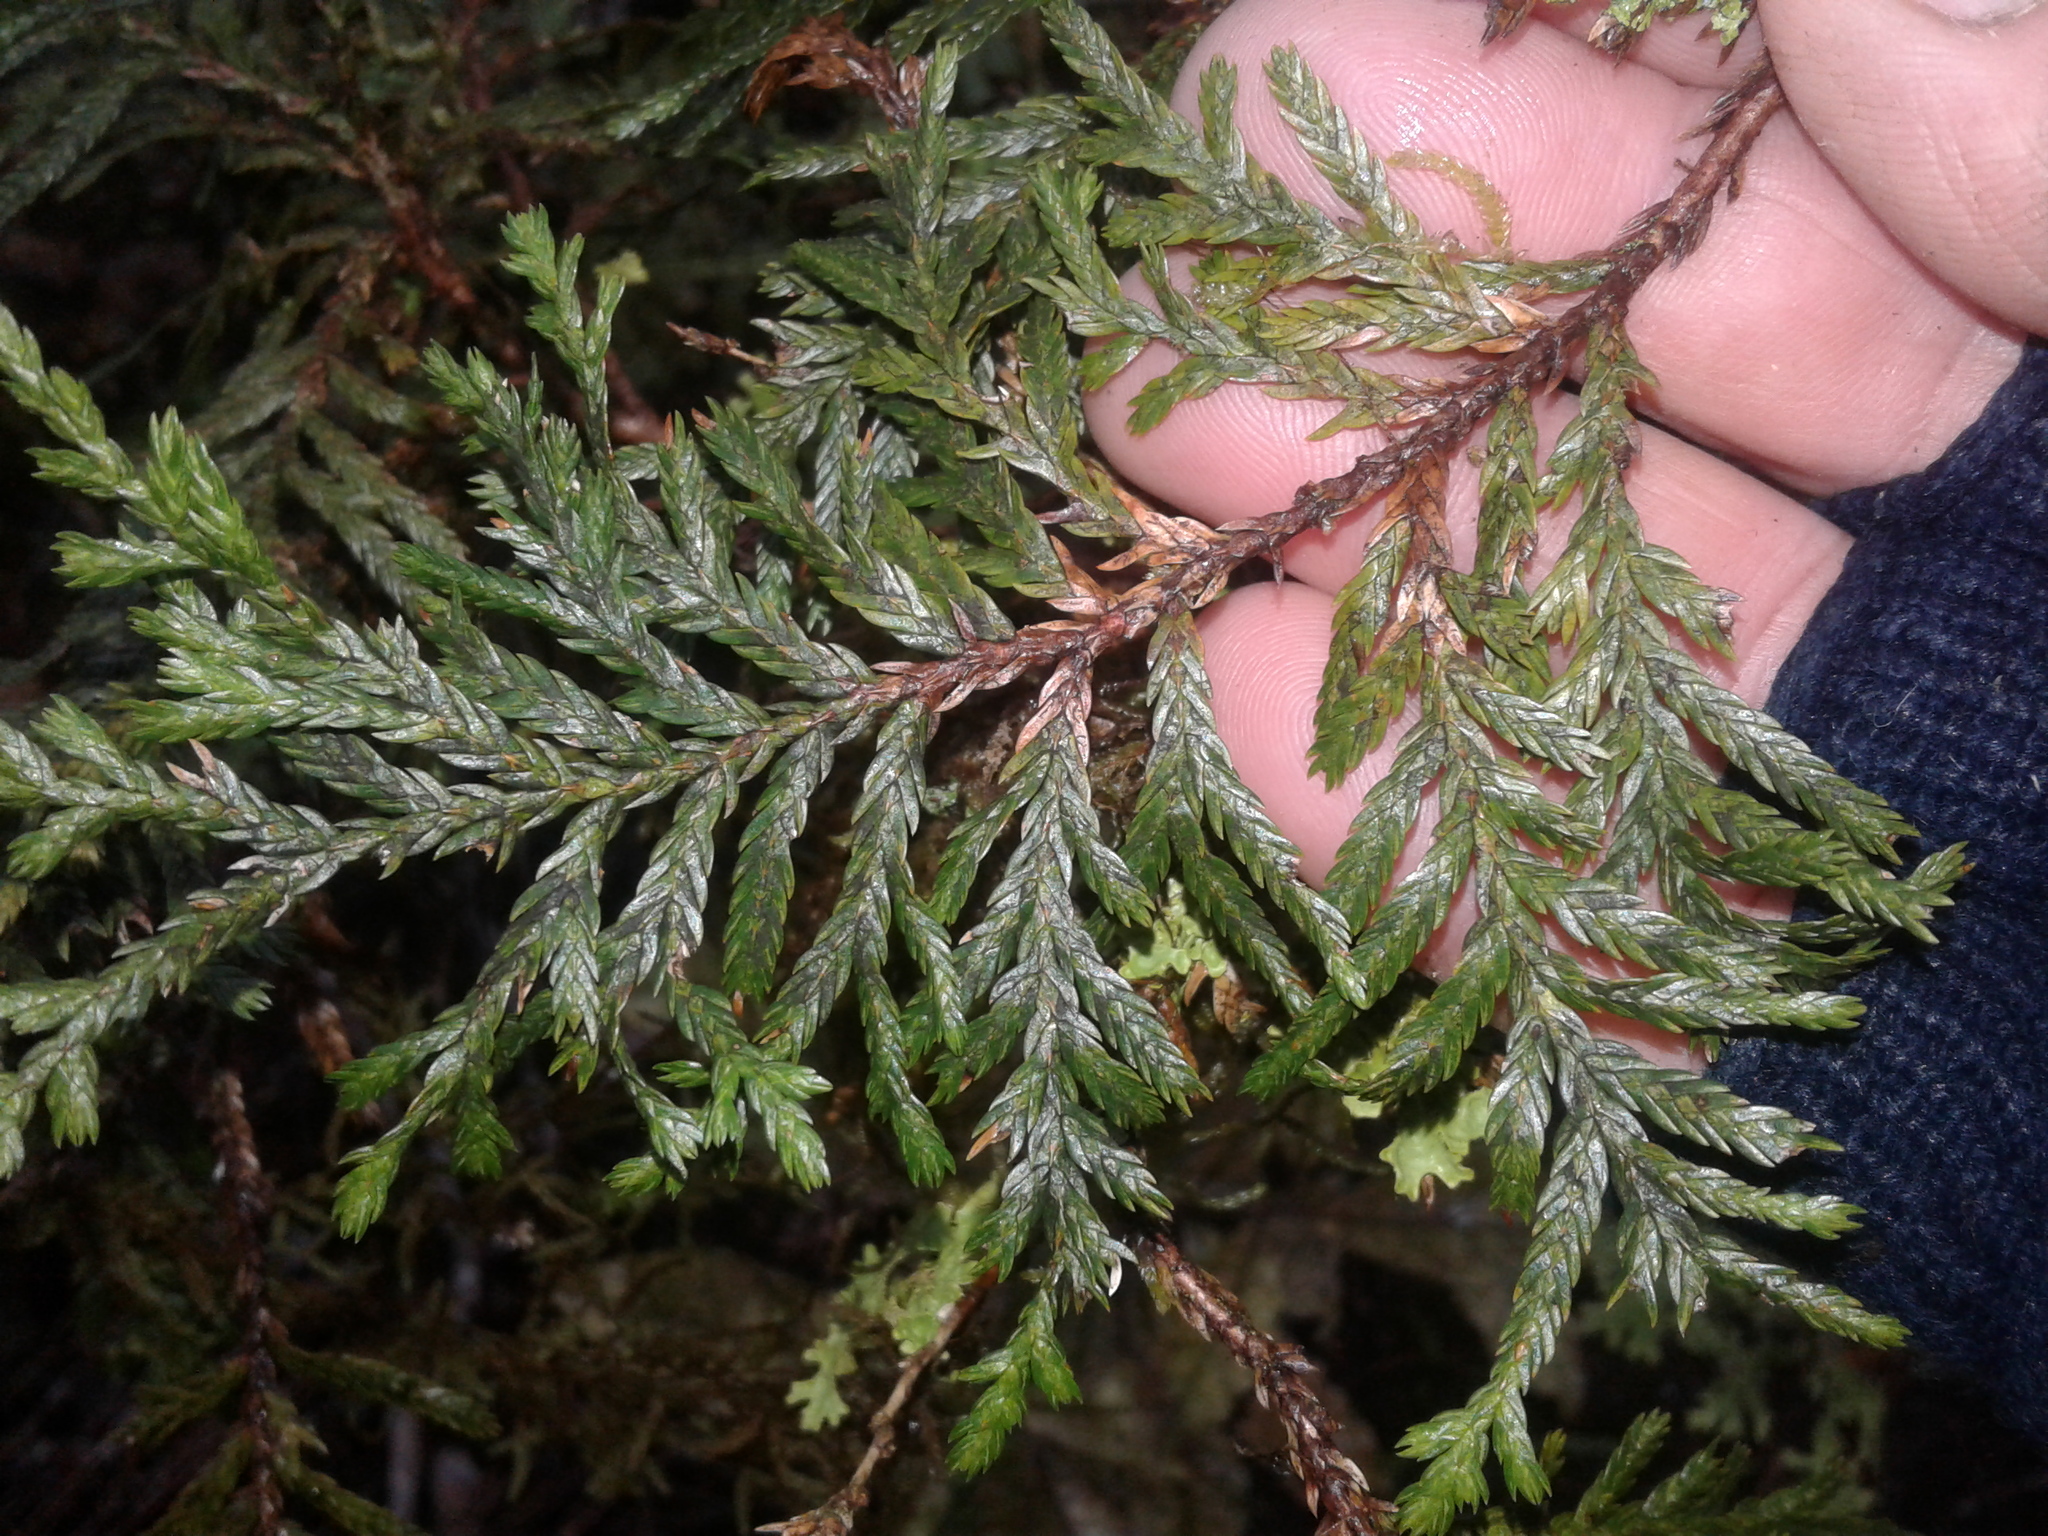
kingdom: Plantae
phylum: Tracheophyta
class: Pinopsida
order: Pinales
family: Cupressaceae
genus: Libocedrus
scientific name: Libocedrus bidwillii
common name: Cedar
